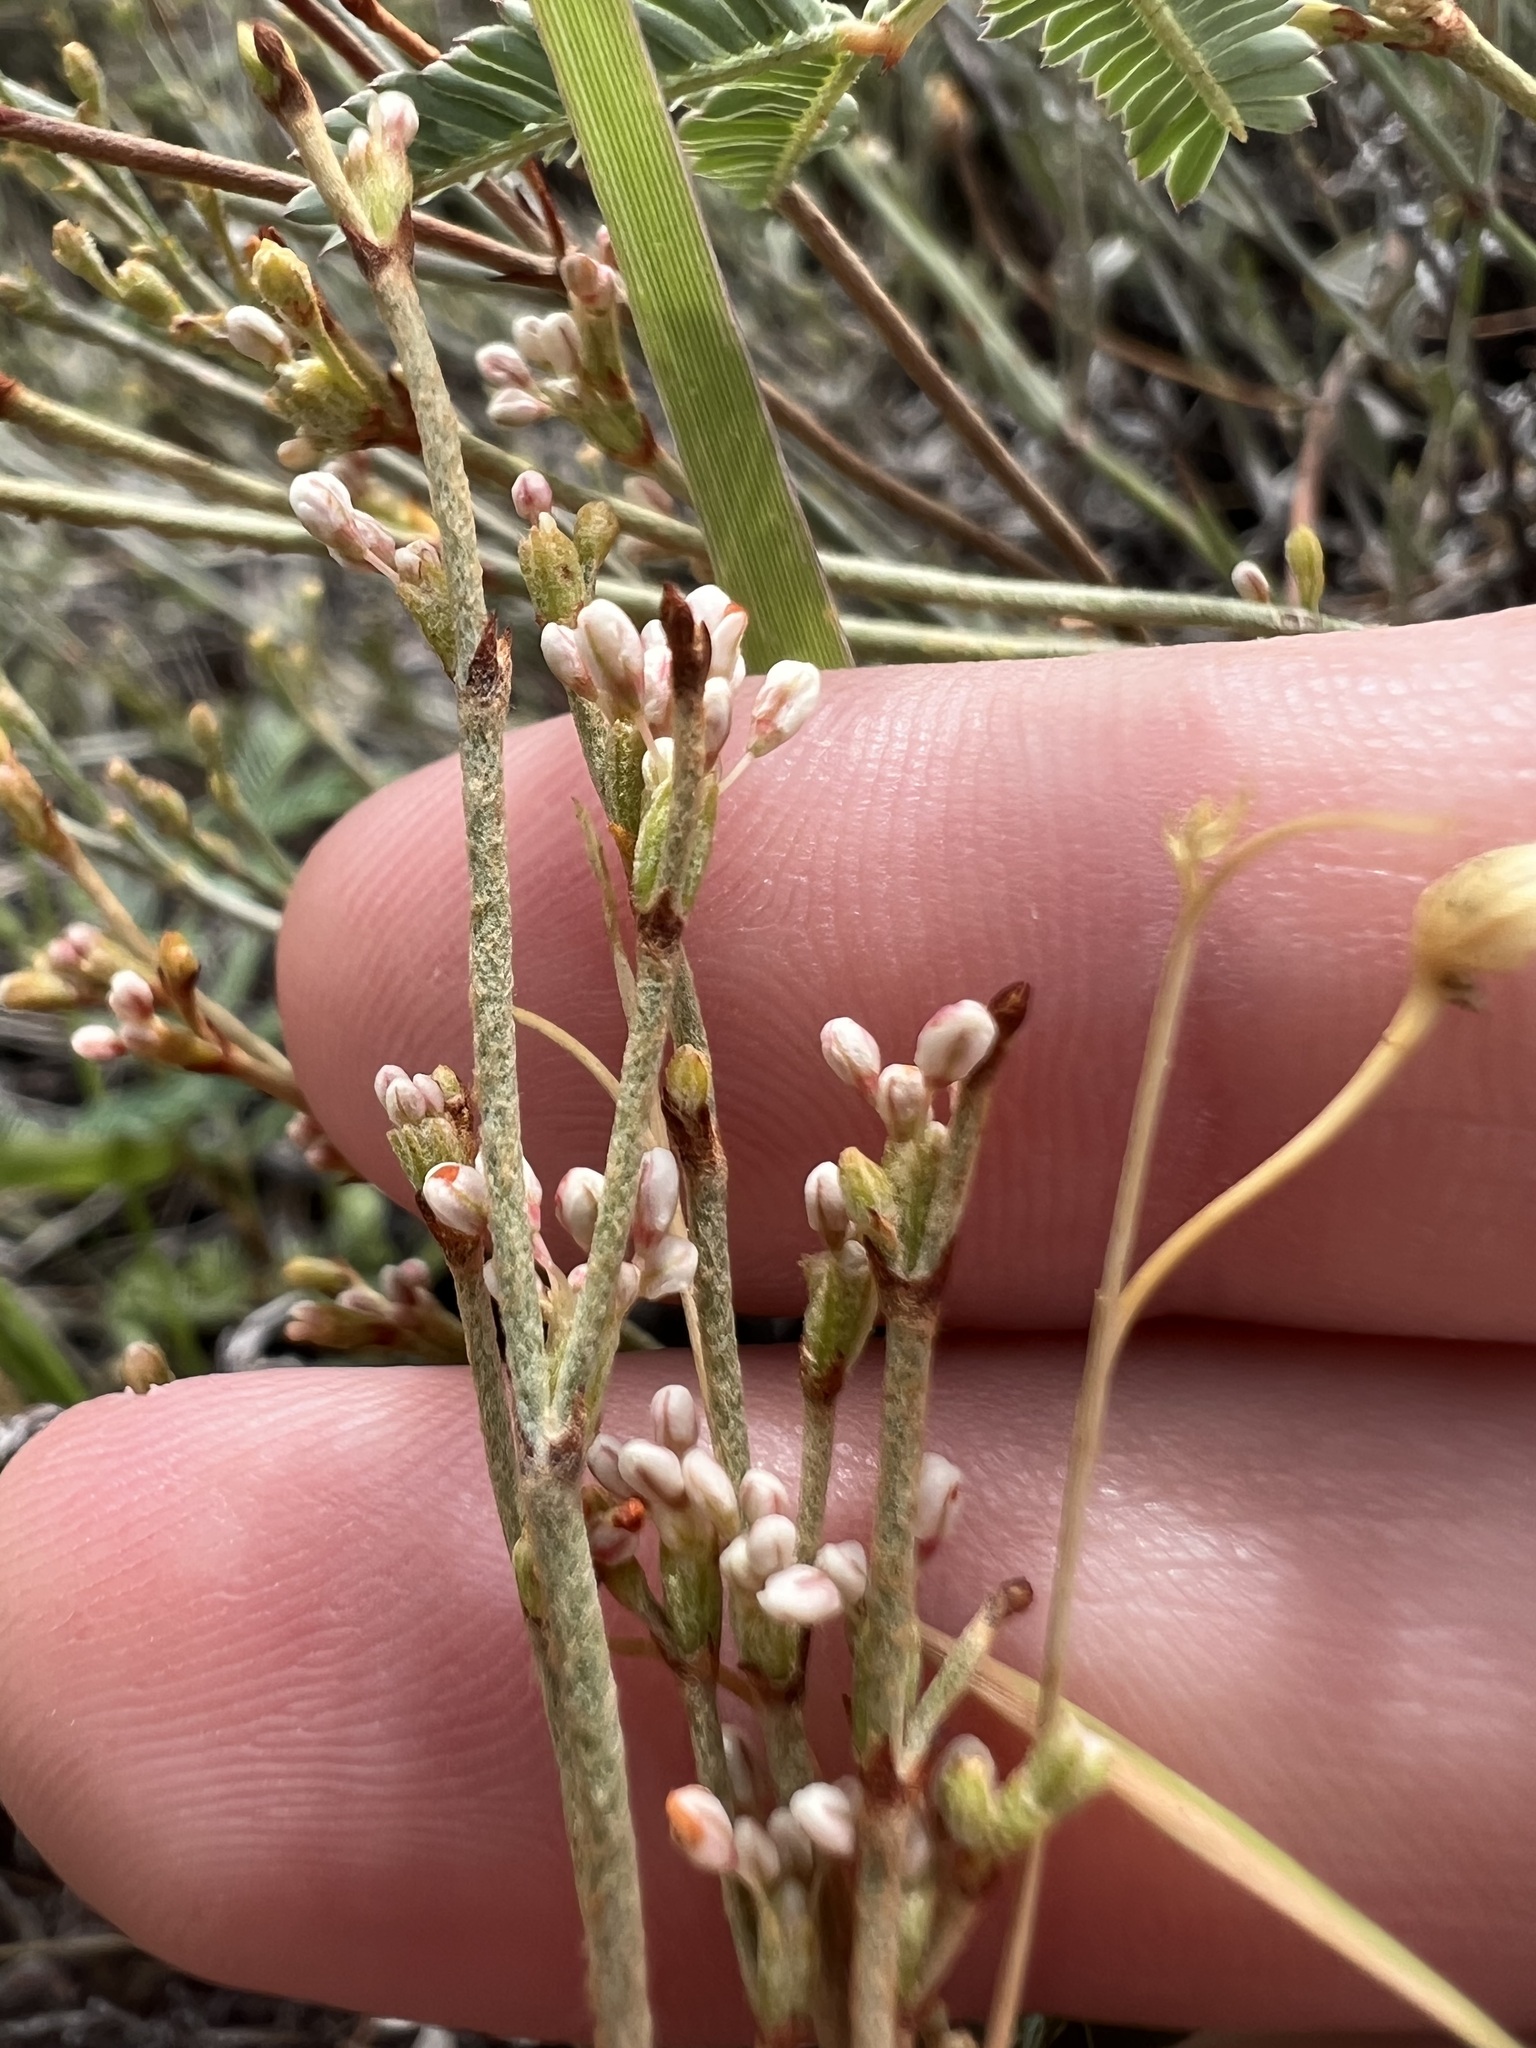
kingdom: Plantae
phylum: Tracheophyta
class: Magnoliopsida
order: Caryophyllales
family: Polygonaceae
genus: Eriogonum
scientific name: Eriogonum wrightii
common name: Bastard-sage
